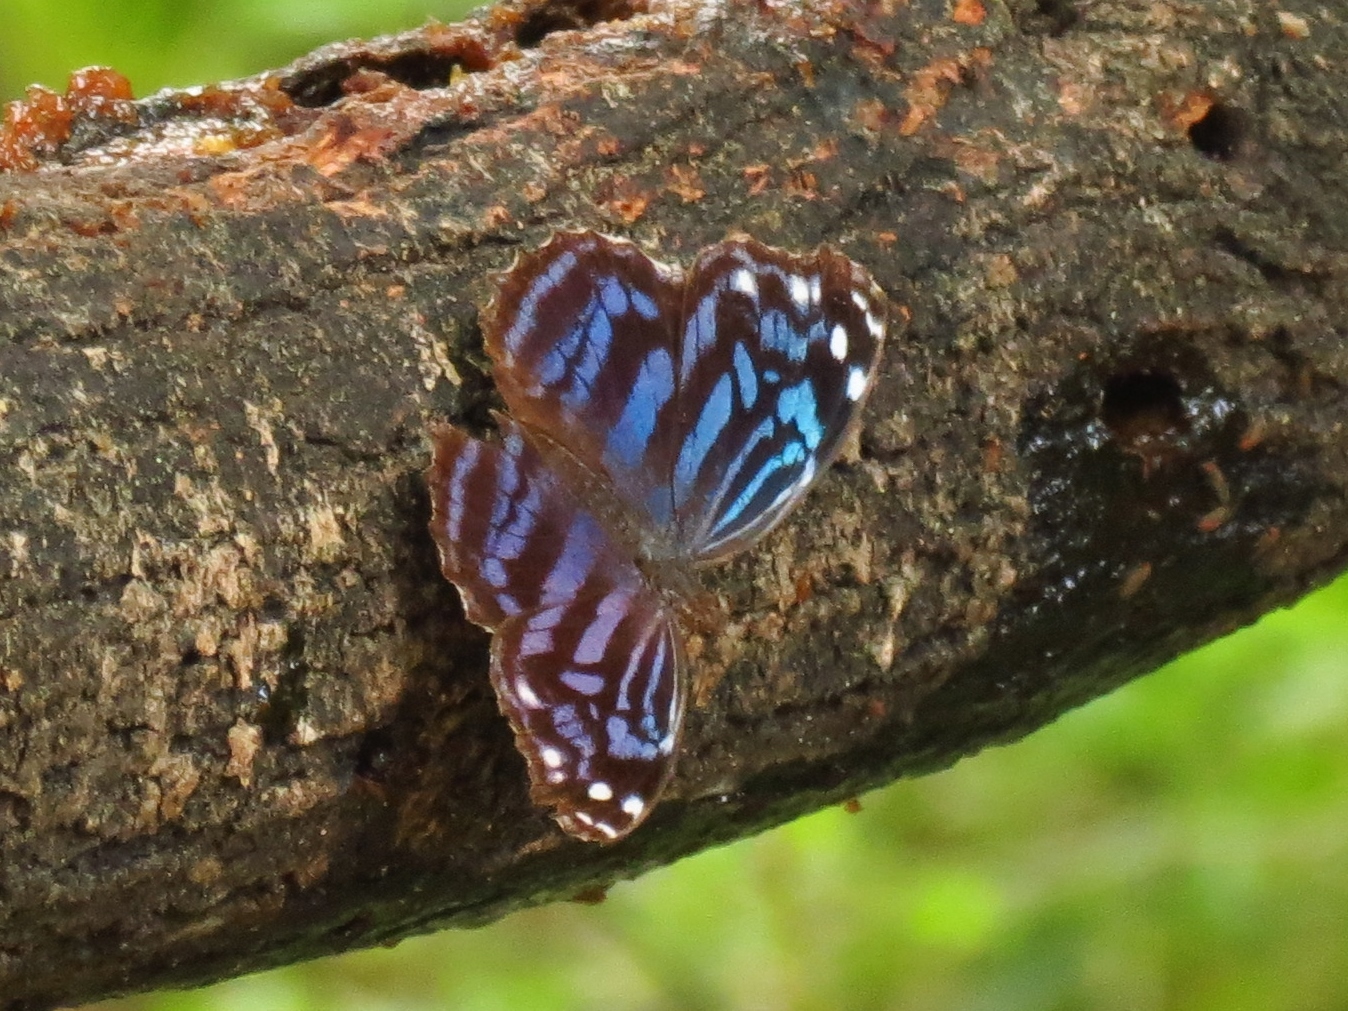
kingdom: Animalia
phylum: Arthropoda
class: Insecta
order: Lepidoptera
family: Nymphalidae
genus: Myscelia
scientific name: Myscelia ethusa
